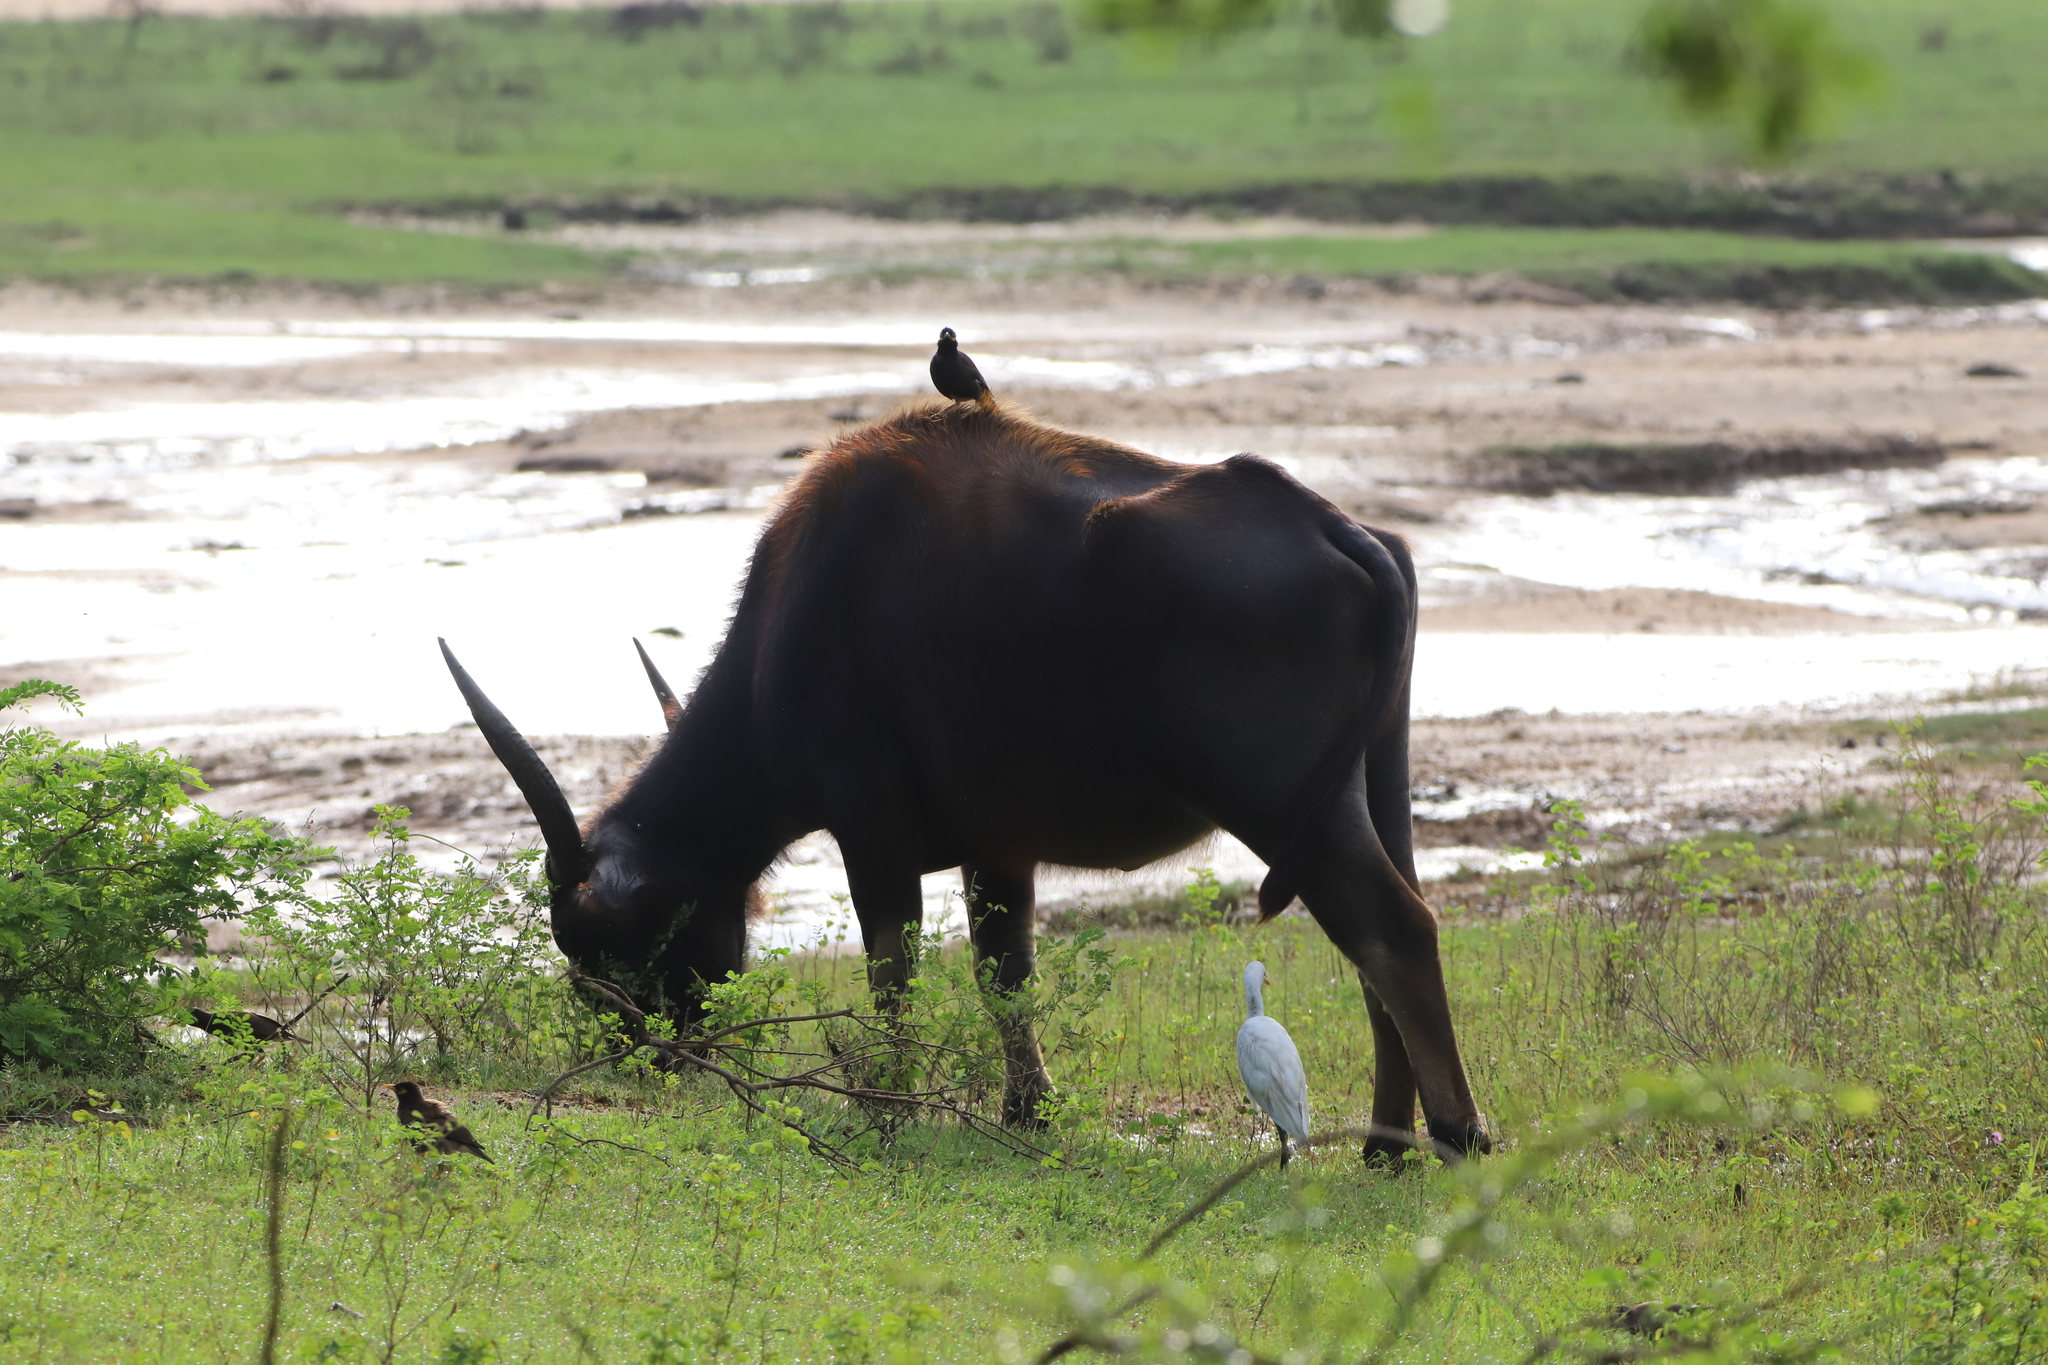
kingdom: Animalia
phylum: Chordata
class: Aves
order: Pelecaniformes
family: Ardeidae
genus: Bubulcus
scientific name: Bubulcus coromandus
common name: Eastern cattle egret
